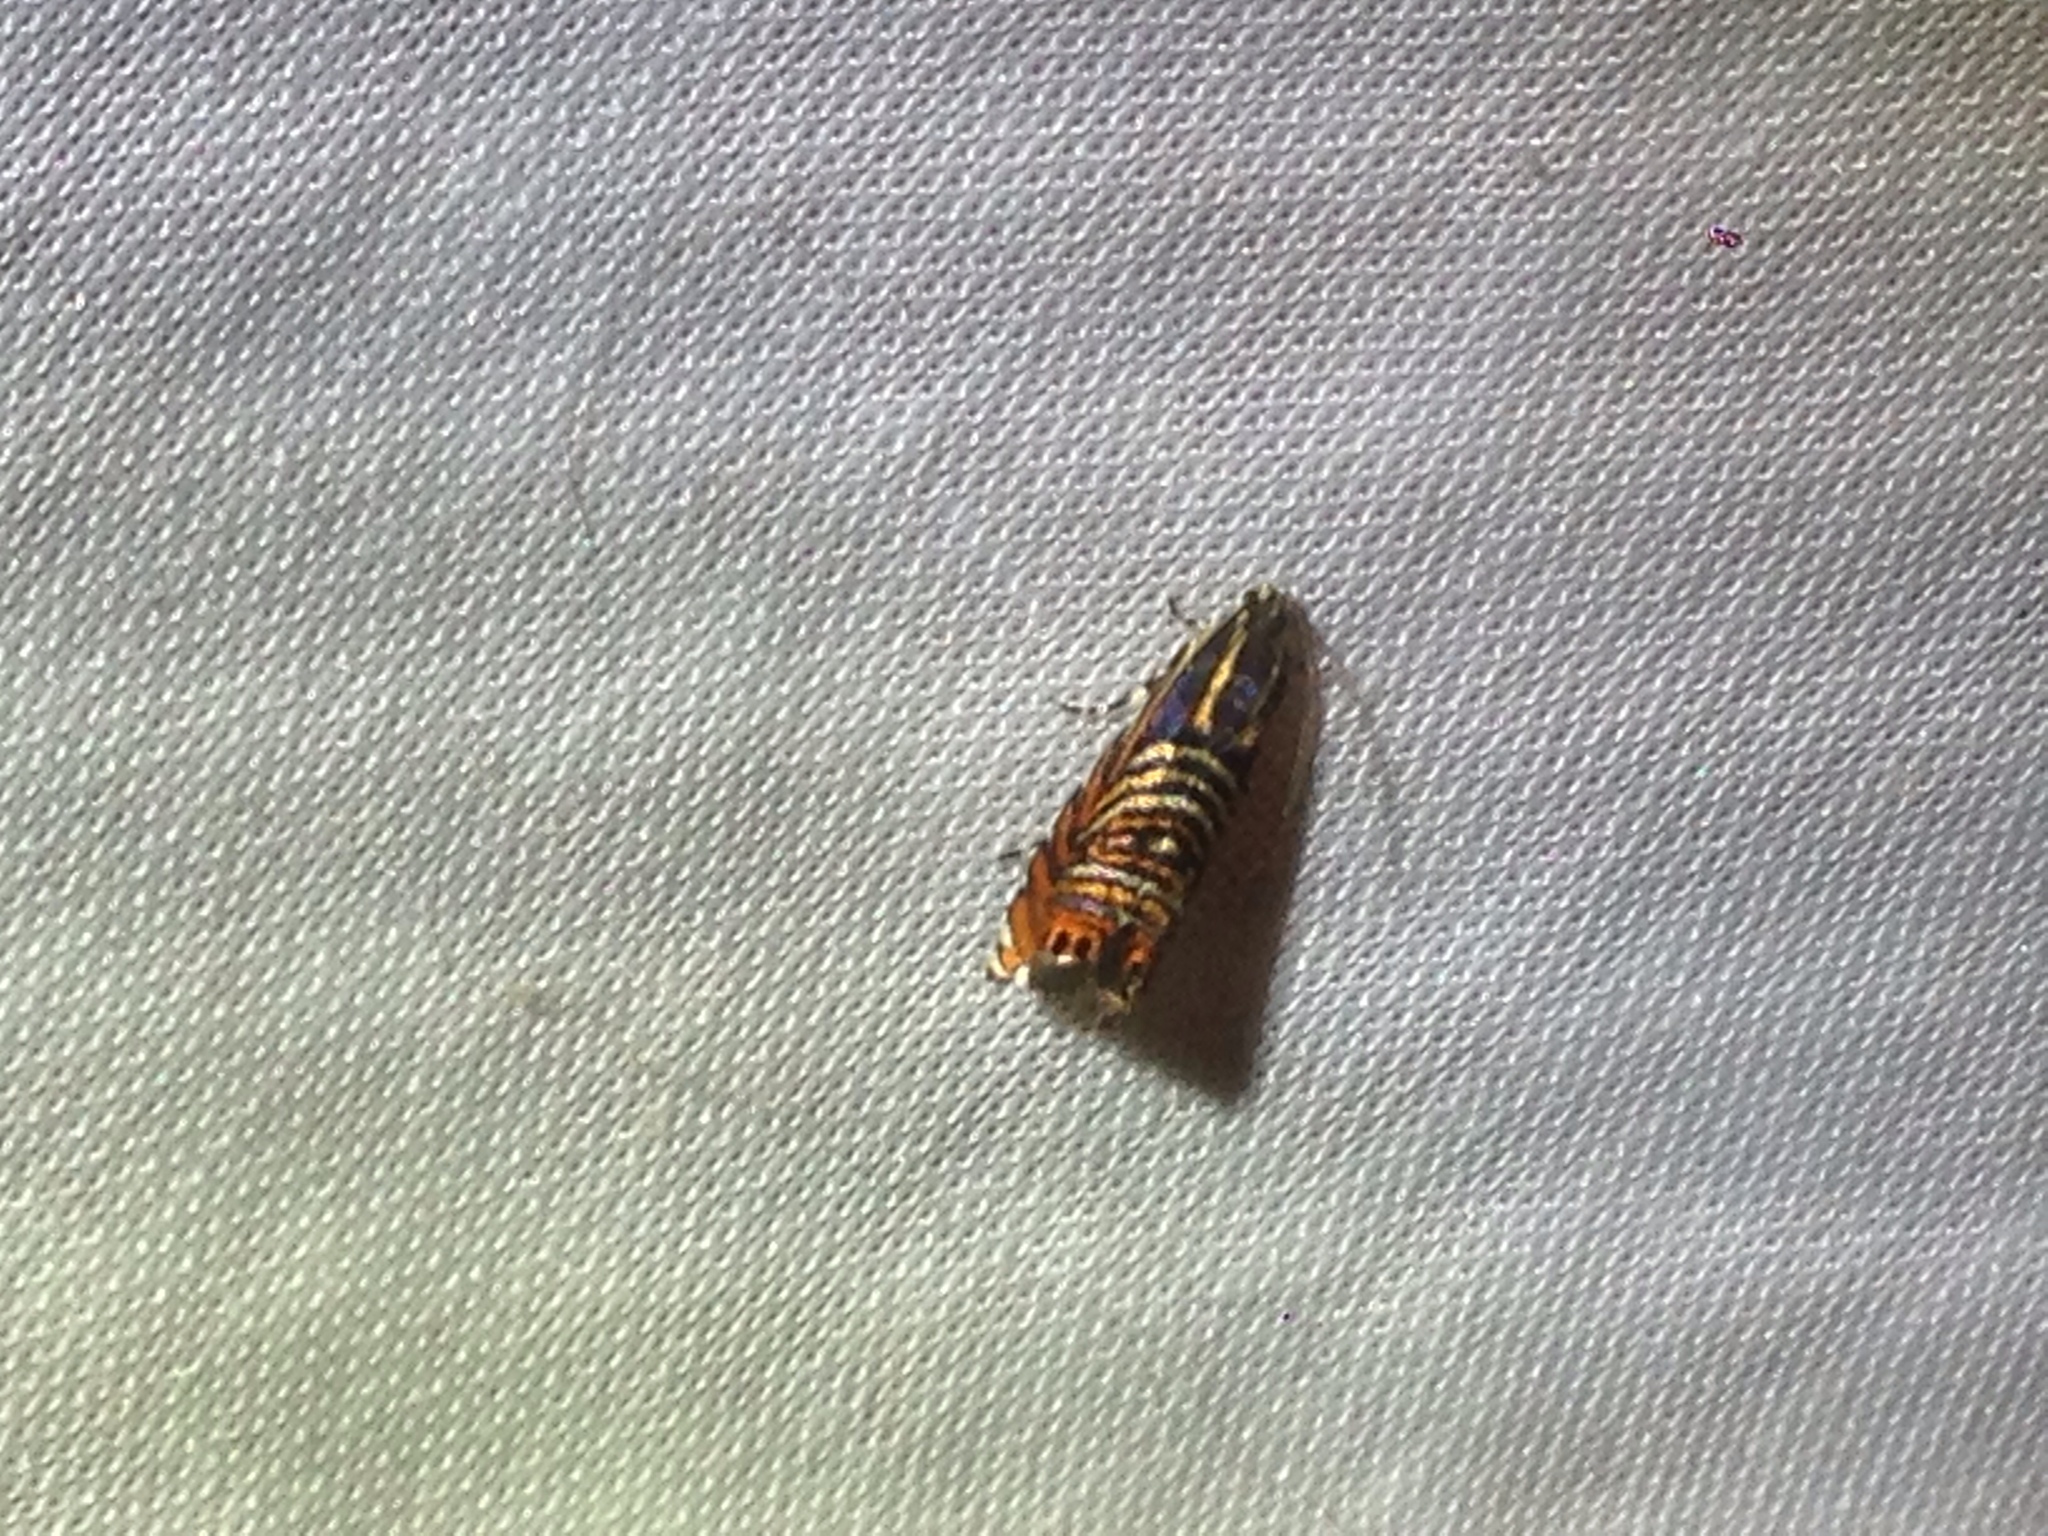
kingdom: Animalia
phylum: Arthropoda
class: Insecta
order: Lepidoptera
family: Tortricidae
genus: Thaumatographa
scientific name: Thaumatographa jonesi
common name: Psychedelic jones moth
